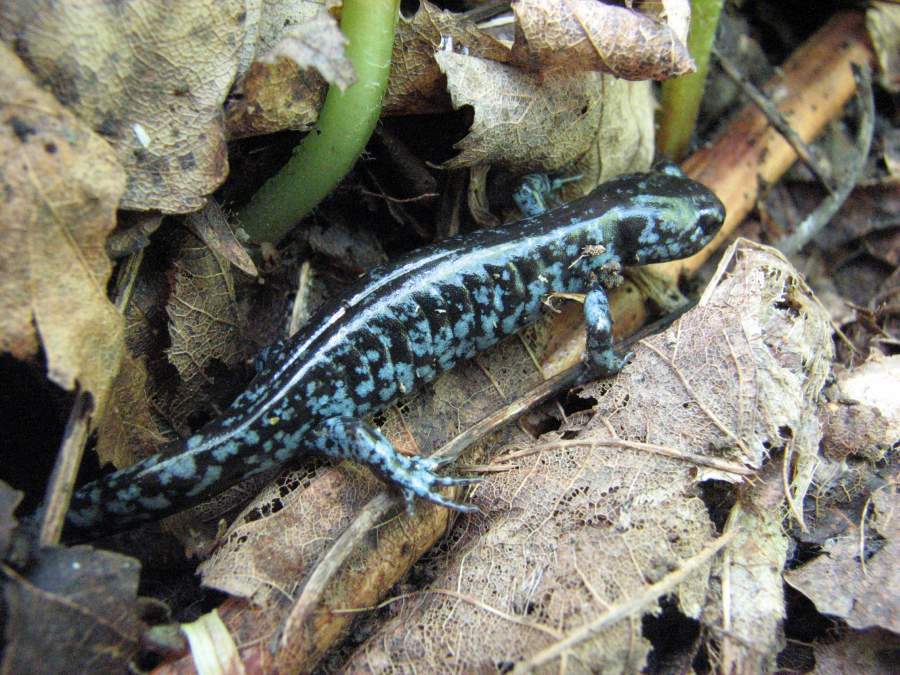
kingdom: Animalia
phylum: Chordata
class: Amphibia
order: Caudata
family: Ambystomatidae
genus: Ambystoma
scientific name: Ambystoma laterale
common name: Blue-spotted salamander
